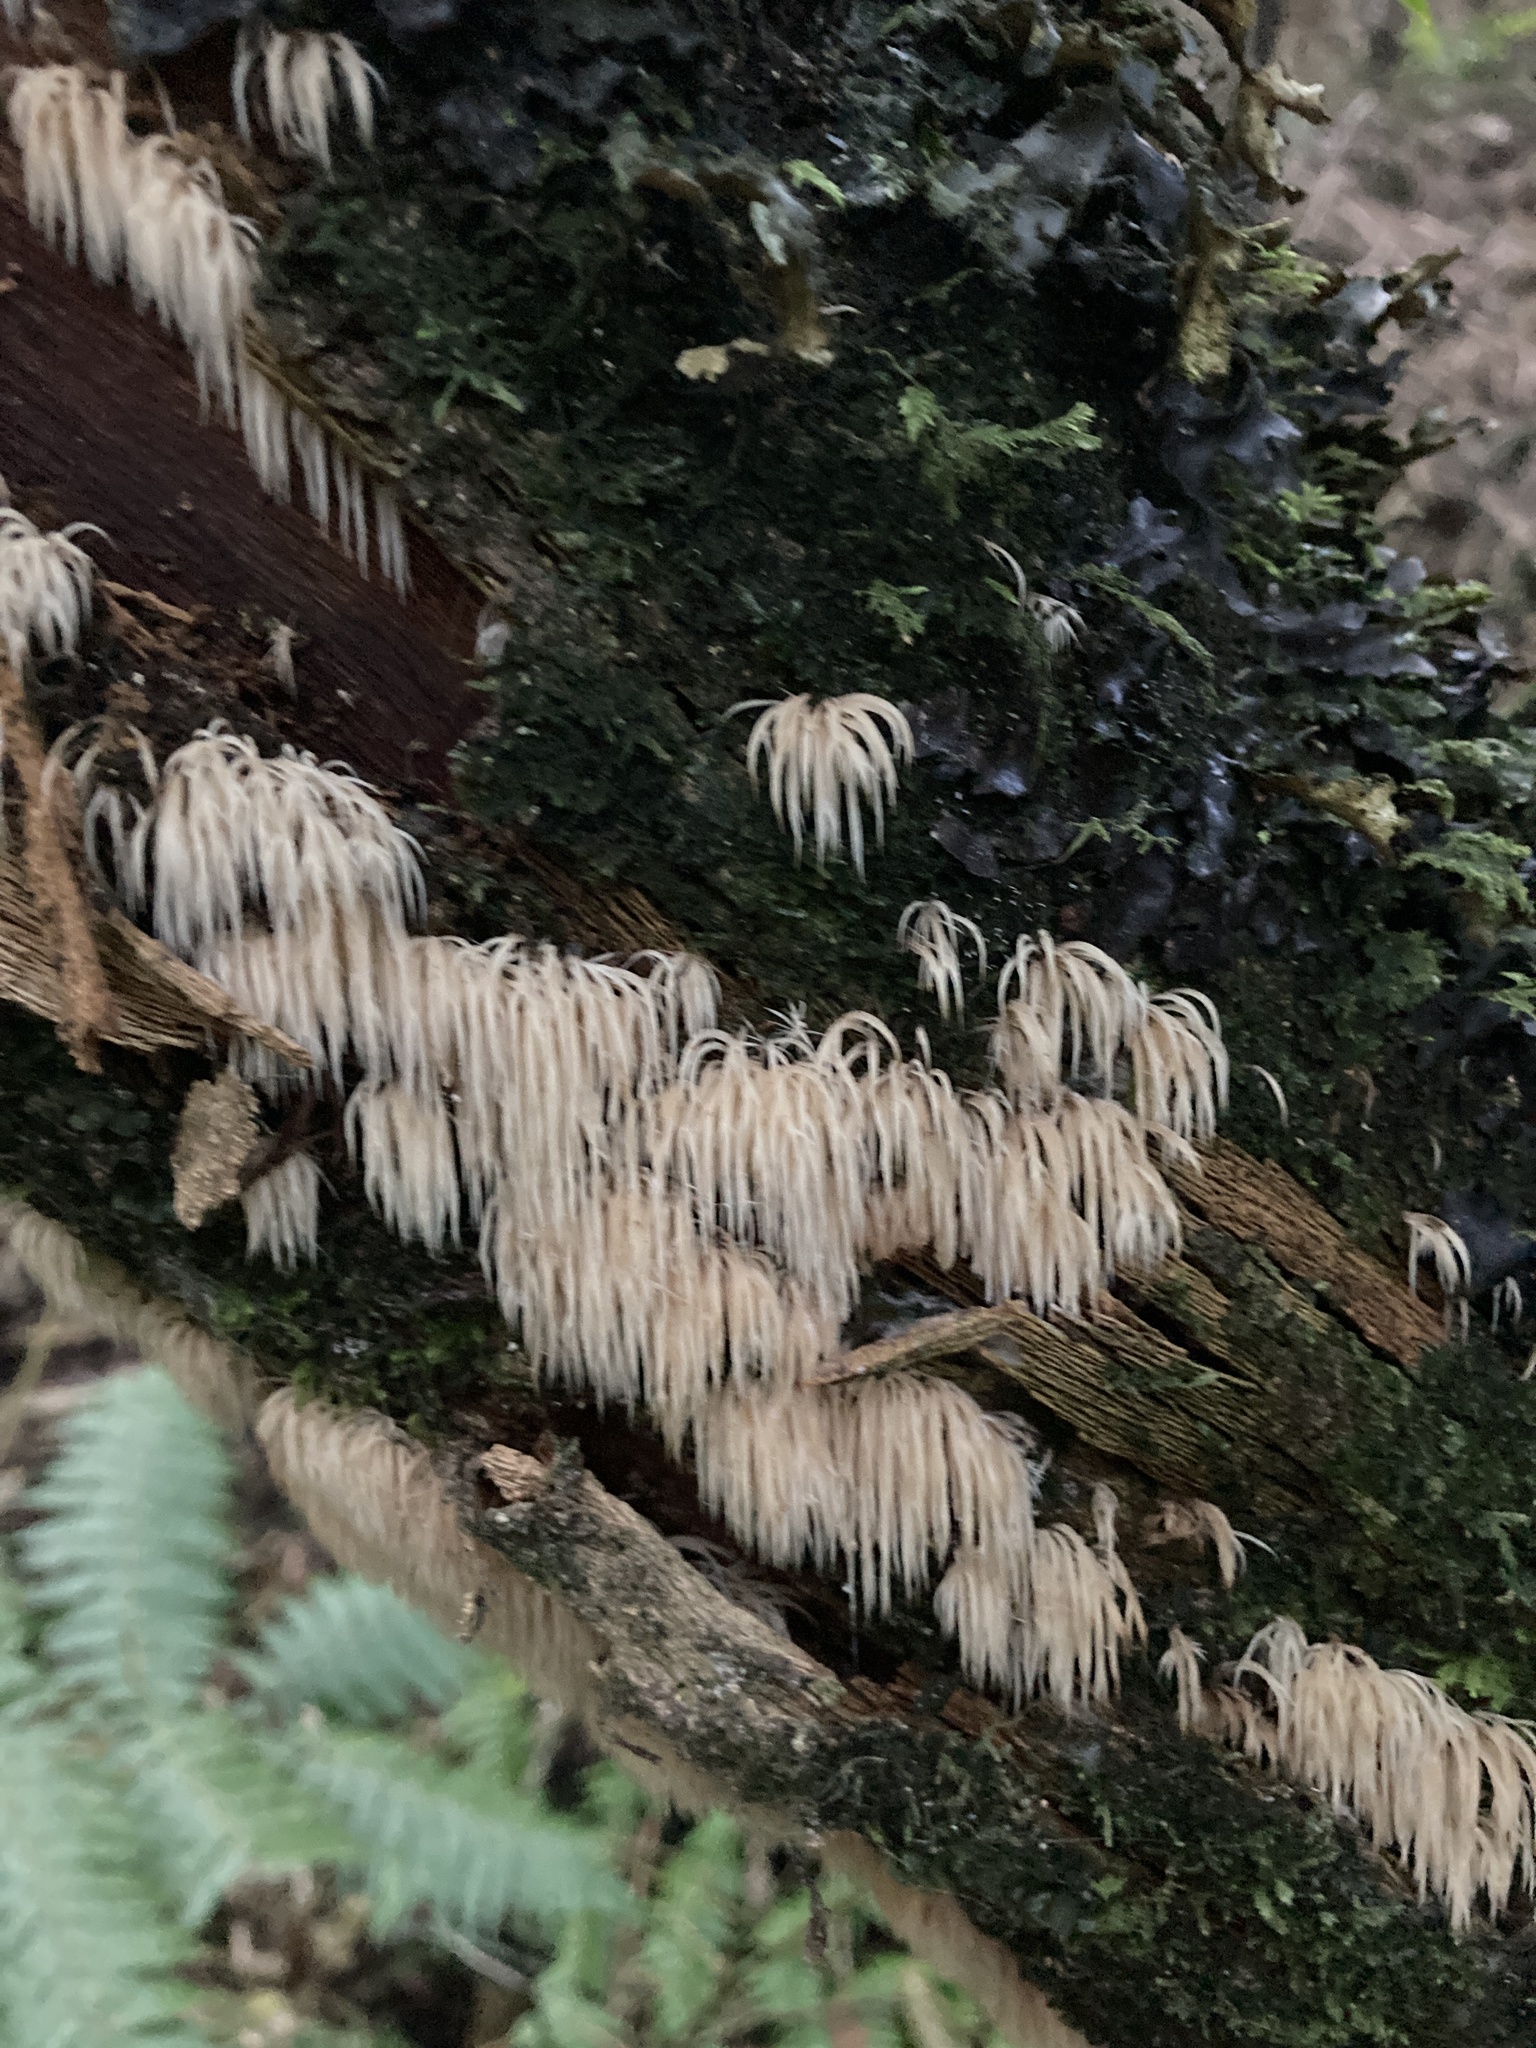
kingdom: Fungi
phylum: Basidiomycota
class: Agaricomycetes
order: Agaricales
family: Pterulaceae
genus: Pterulicium
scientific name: Pterulicium fasciculare
